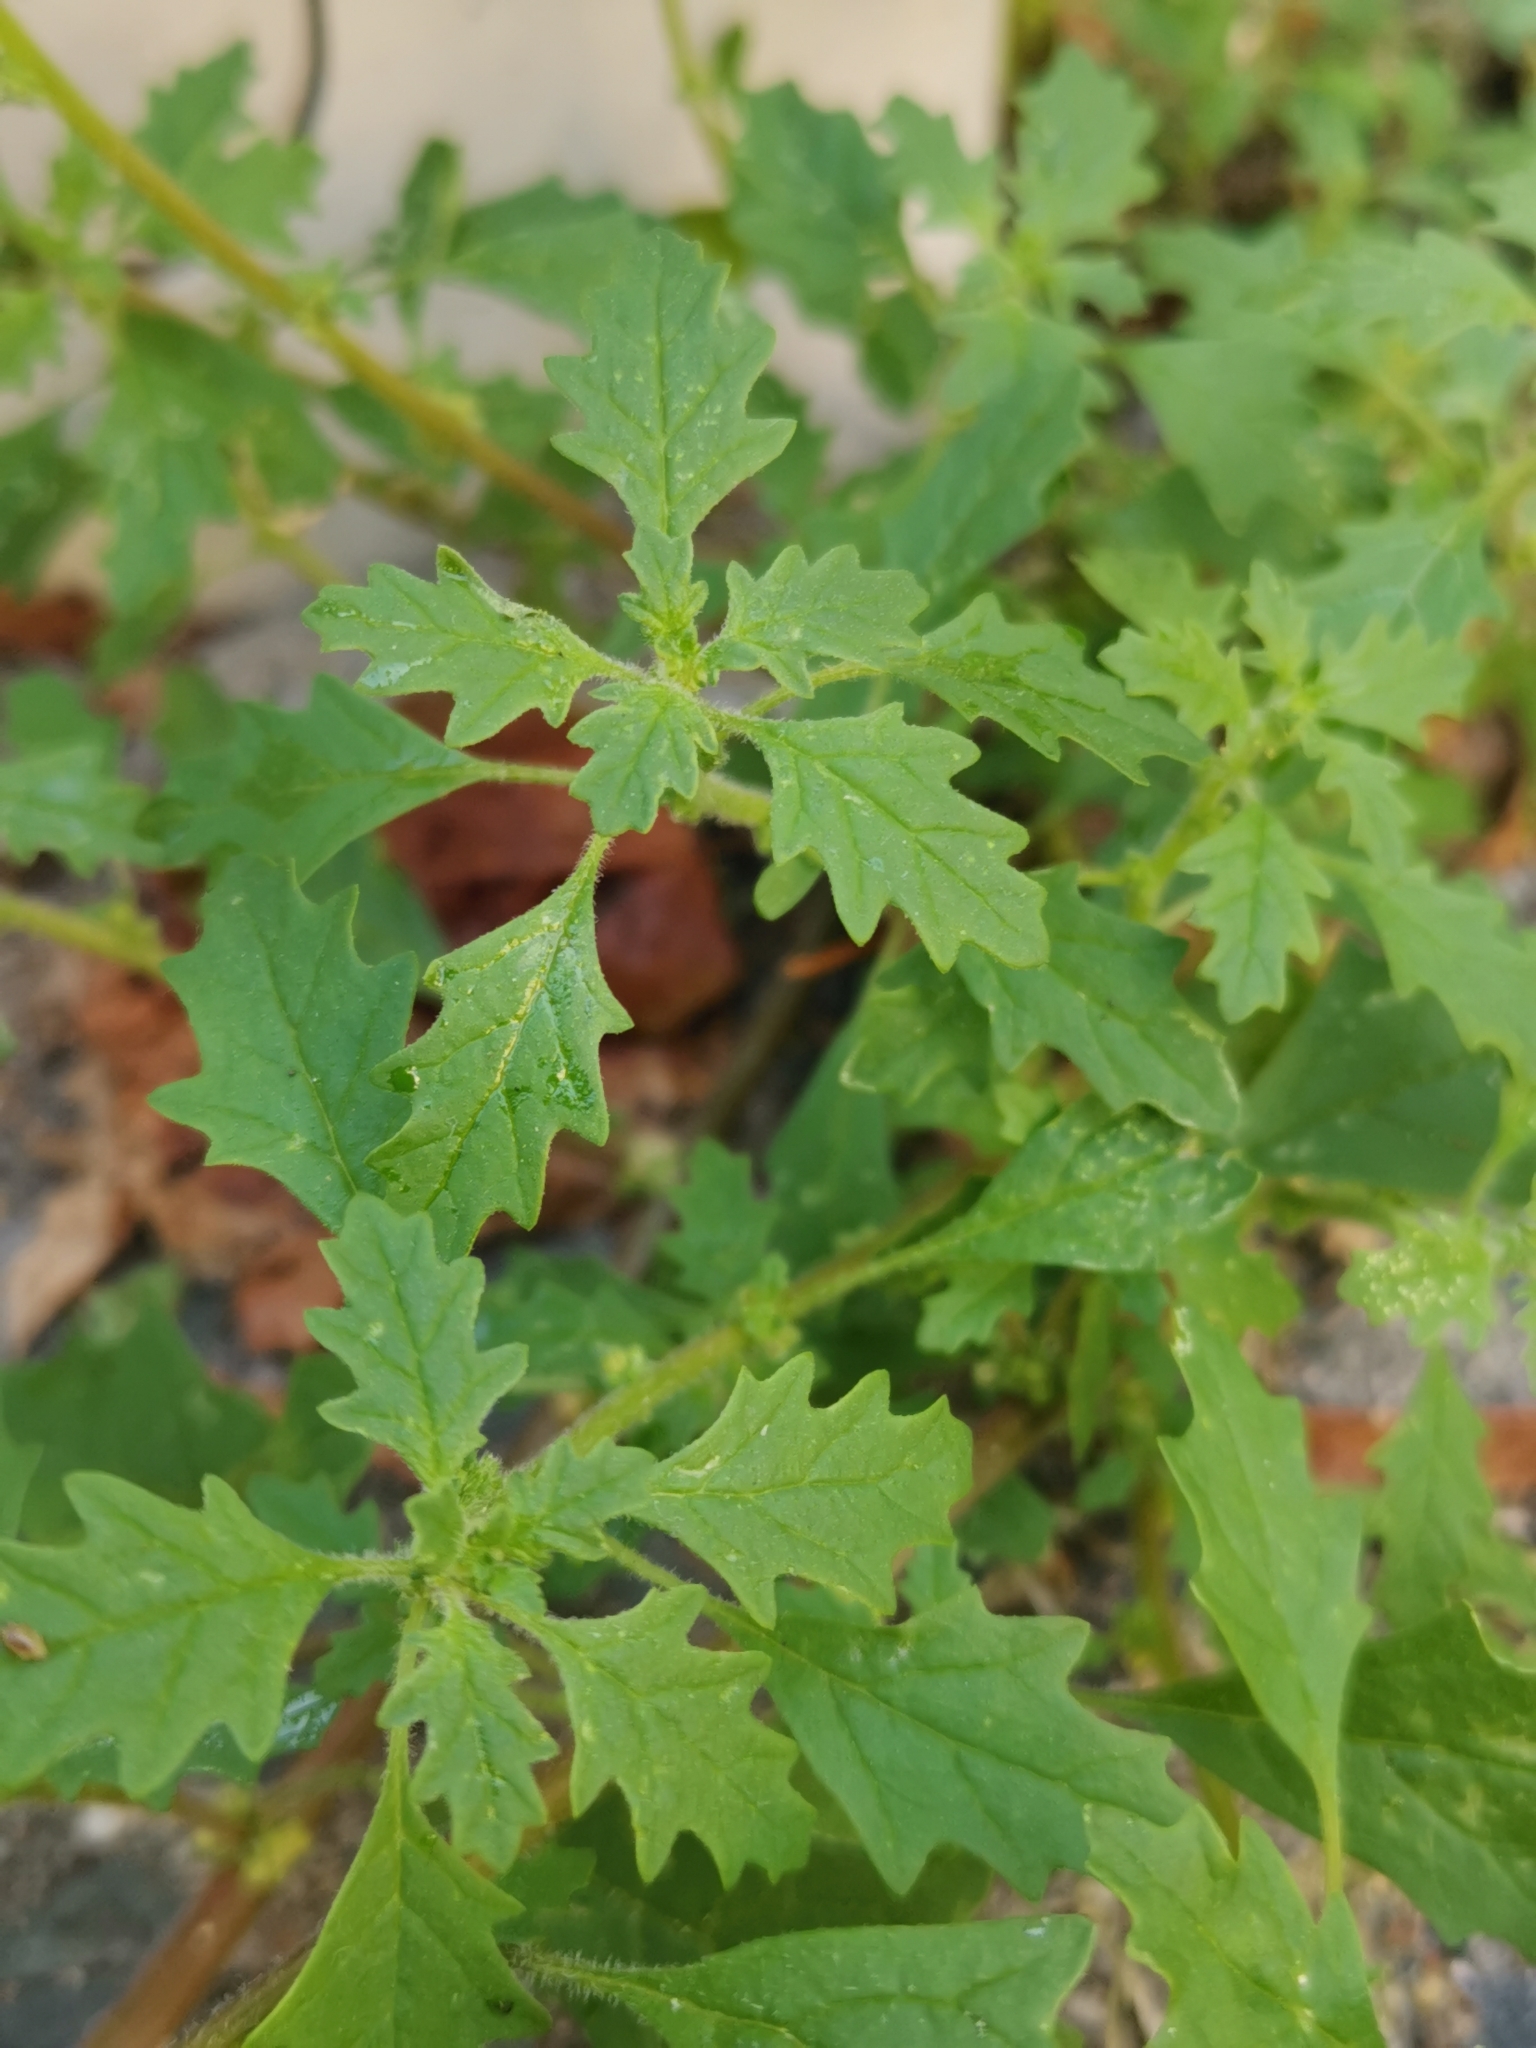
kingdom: Plantae
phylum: Tracheophyta
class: Magnoliopsida
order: Caryophyllales
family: Amaranthaceae
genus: Dysphania
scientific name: Dysphania pumilio
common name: Clammy goosefoot
